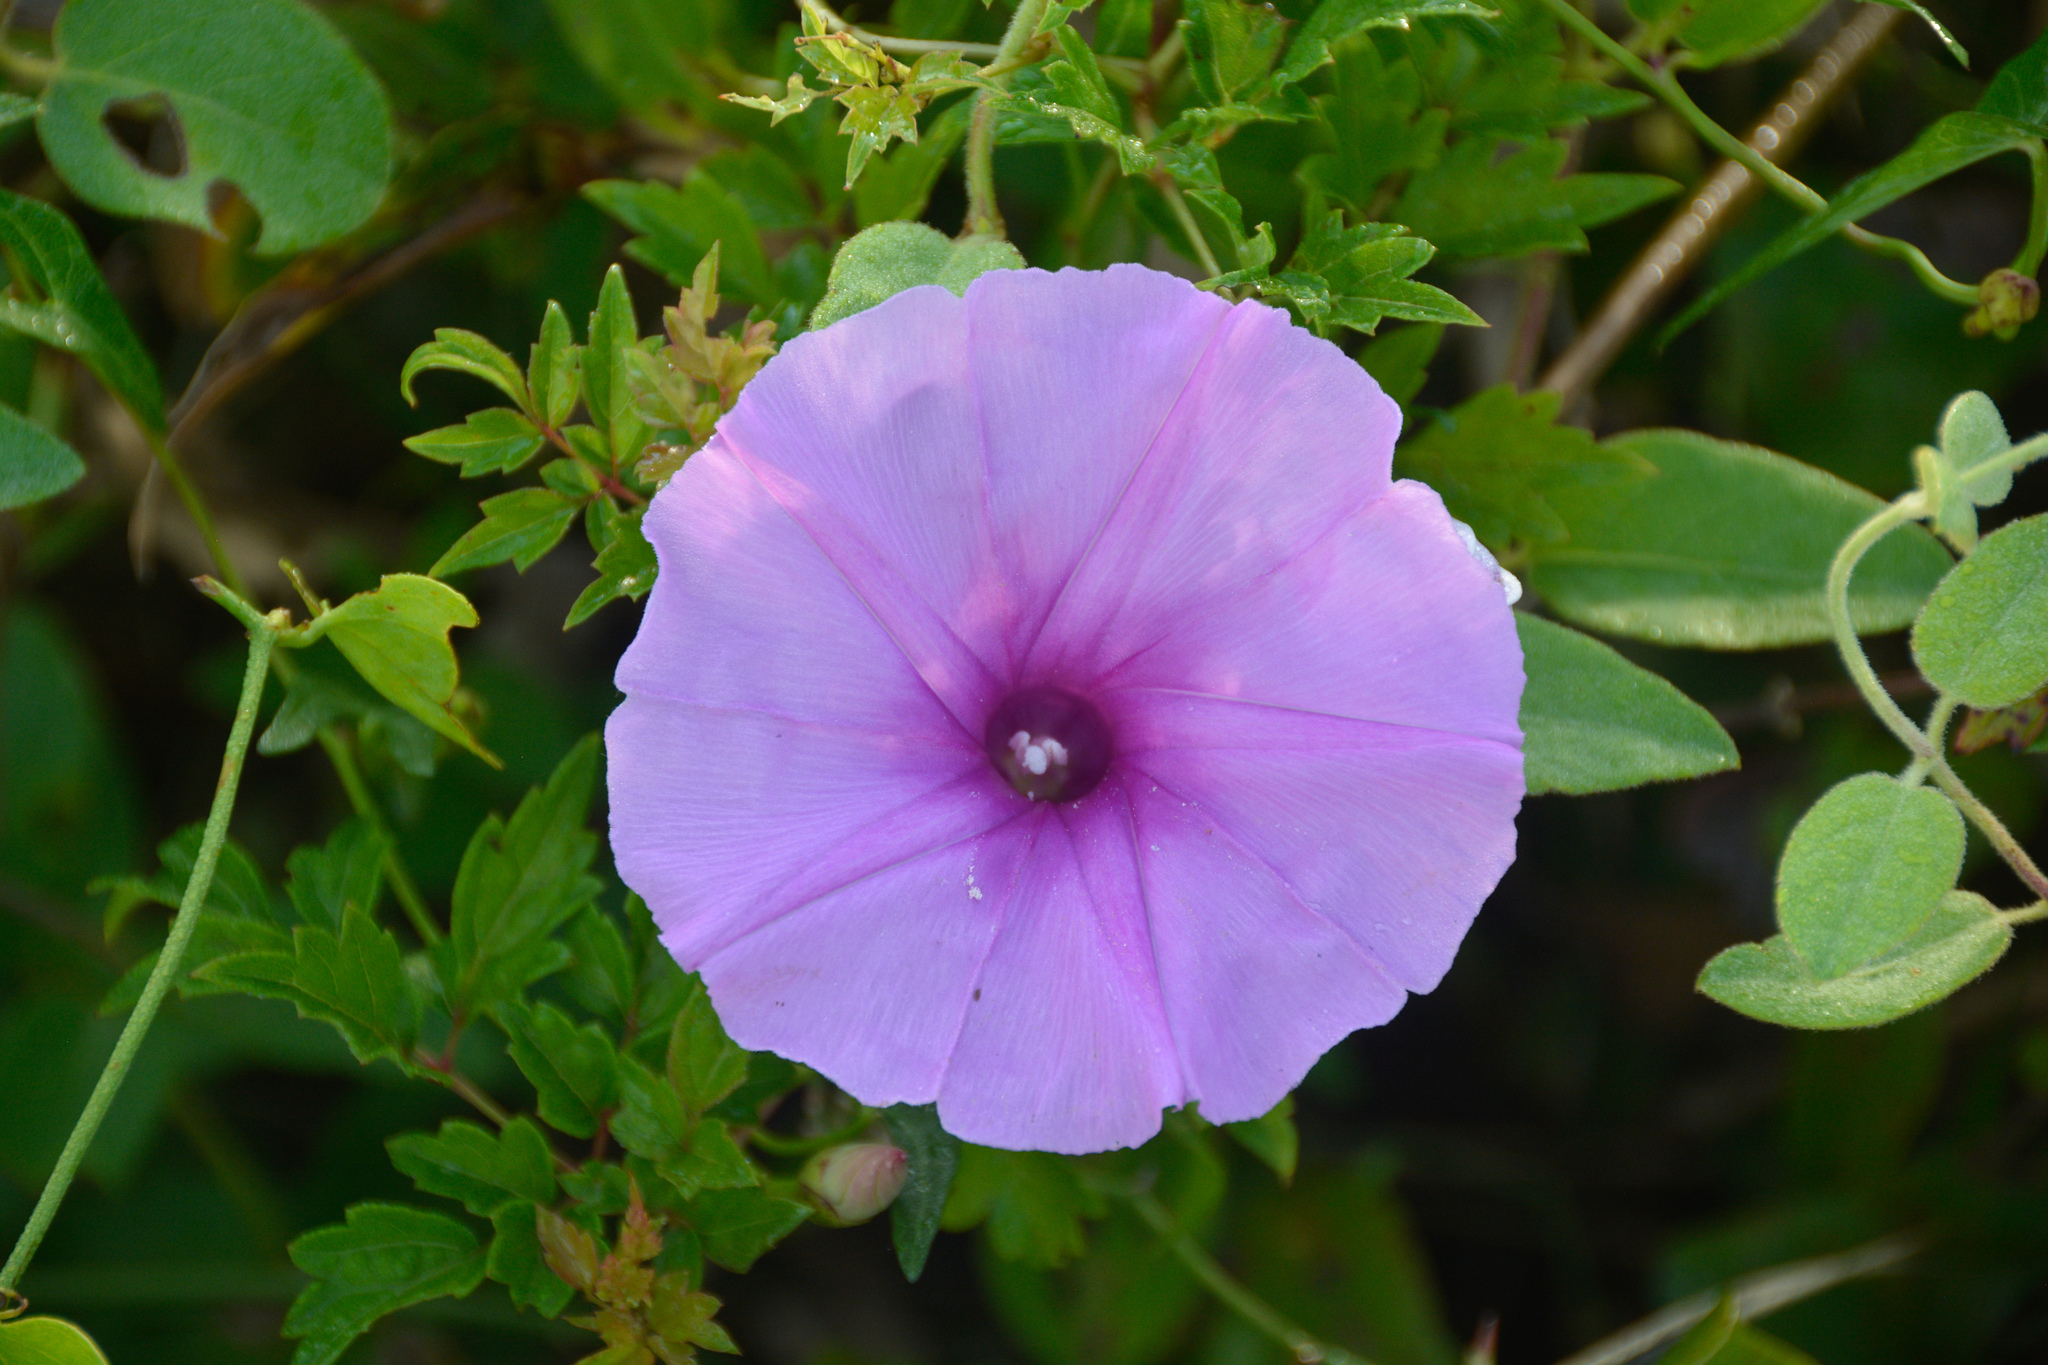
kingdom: Plantae
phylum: Tracheophyta
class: Magnoliopsida
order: Solanales
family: Convolvulaceae
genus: Ipomoea
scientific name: Ipomoea sagittata
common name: Saltmarsh morning glory
